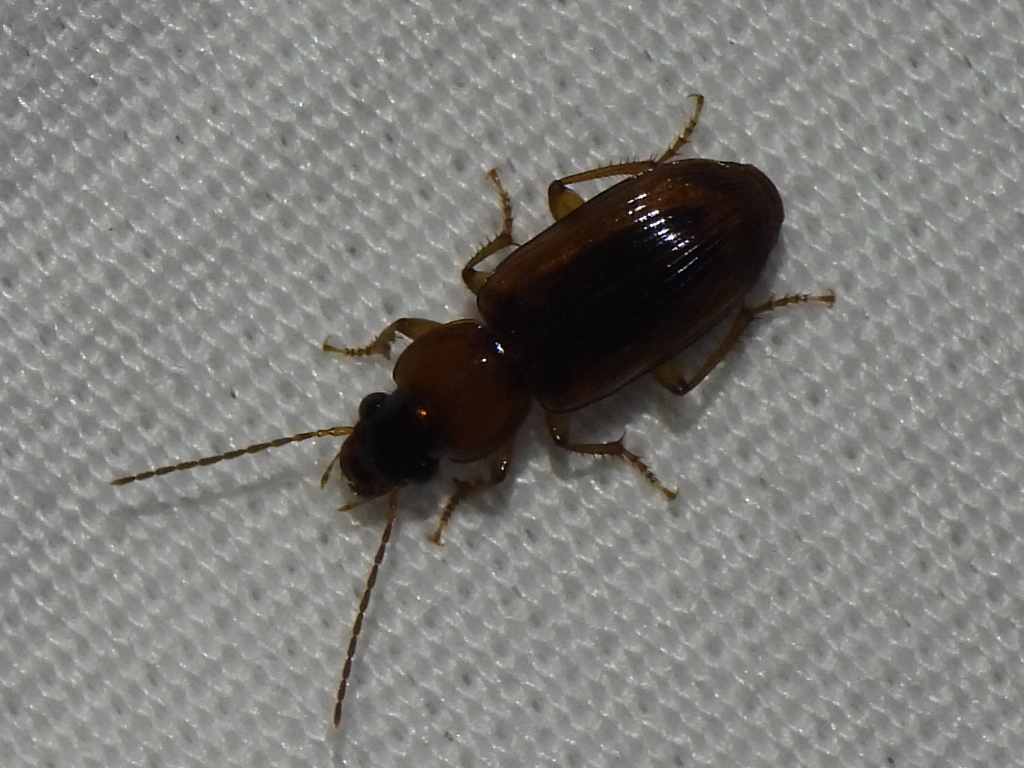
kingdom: Animalia
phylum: Arthropoda
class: Insecta
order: Coleoptera
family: Carabidae
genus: Stenolophus
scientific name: Stenolophus dissimilis
